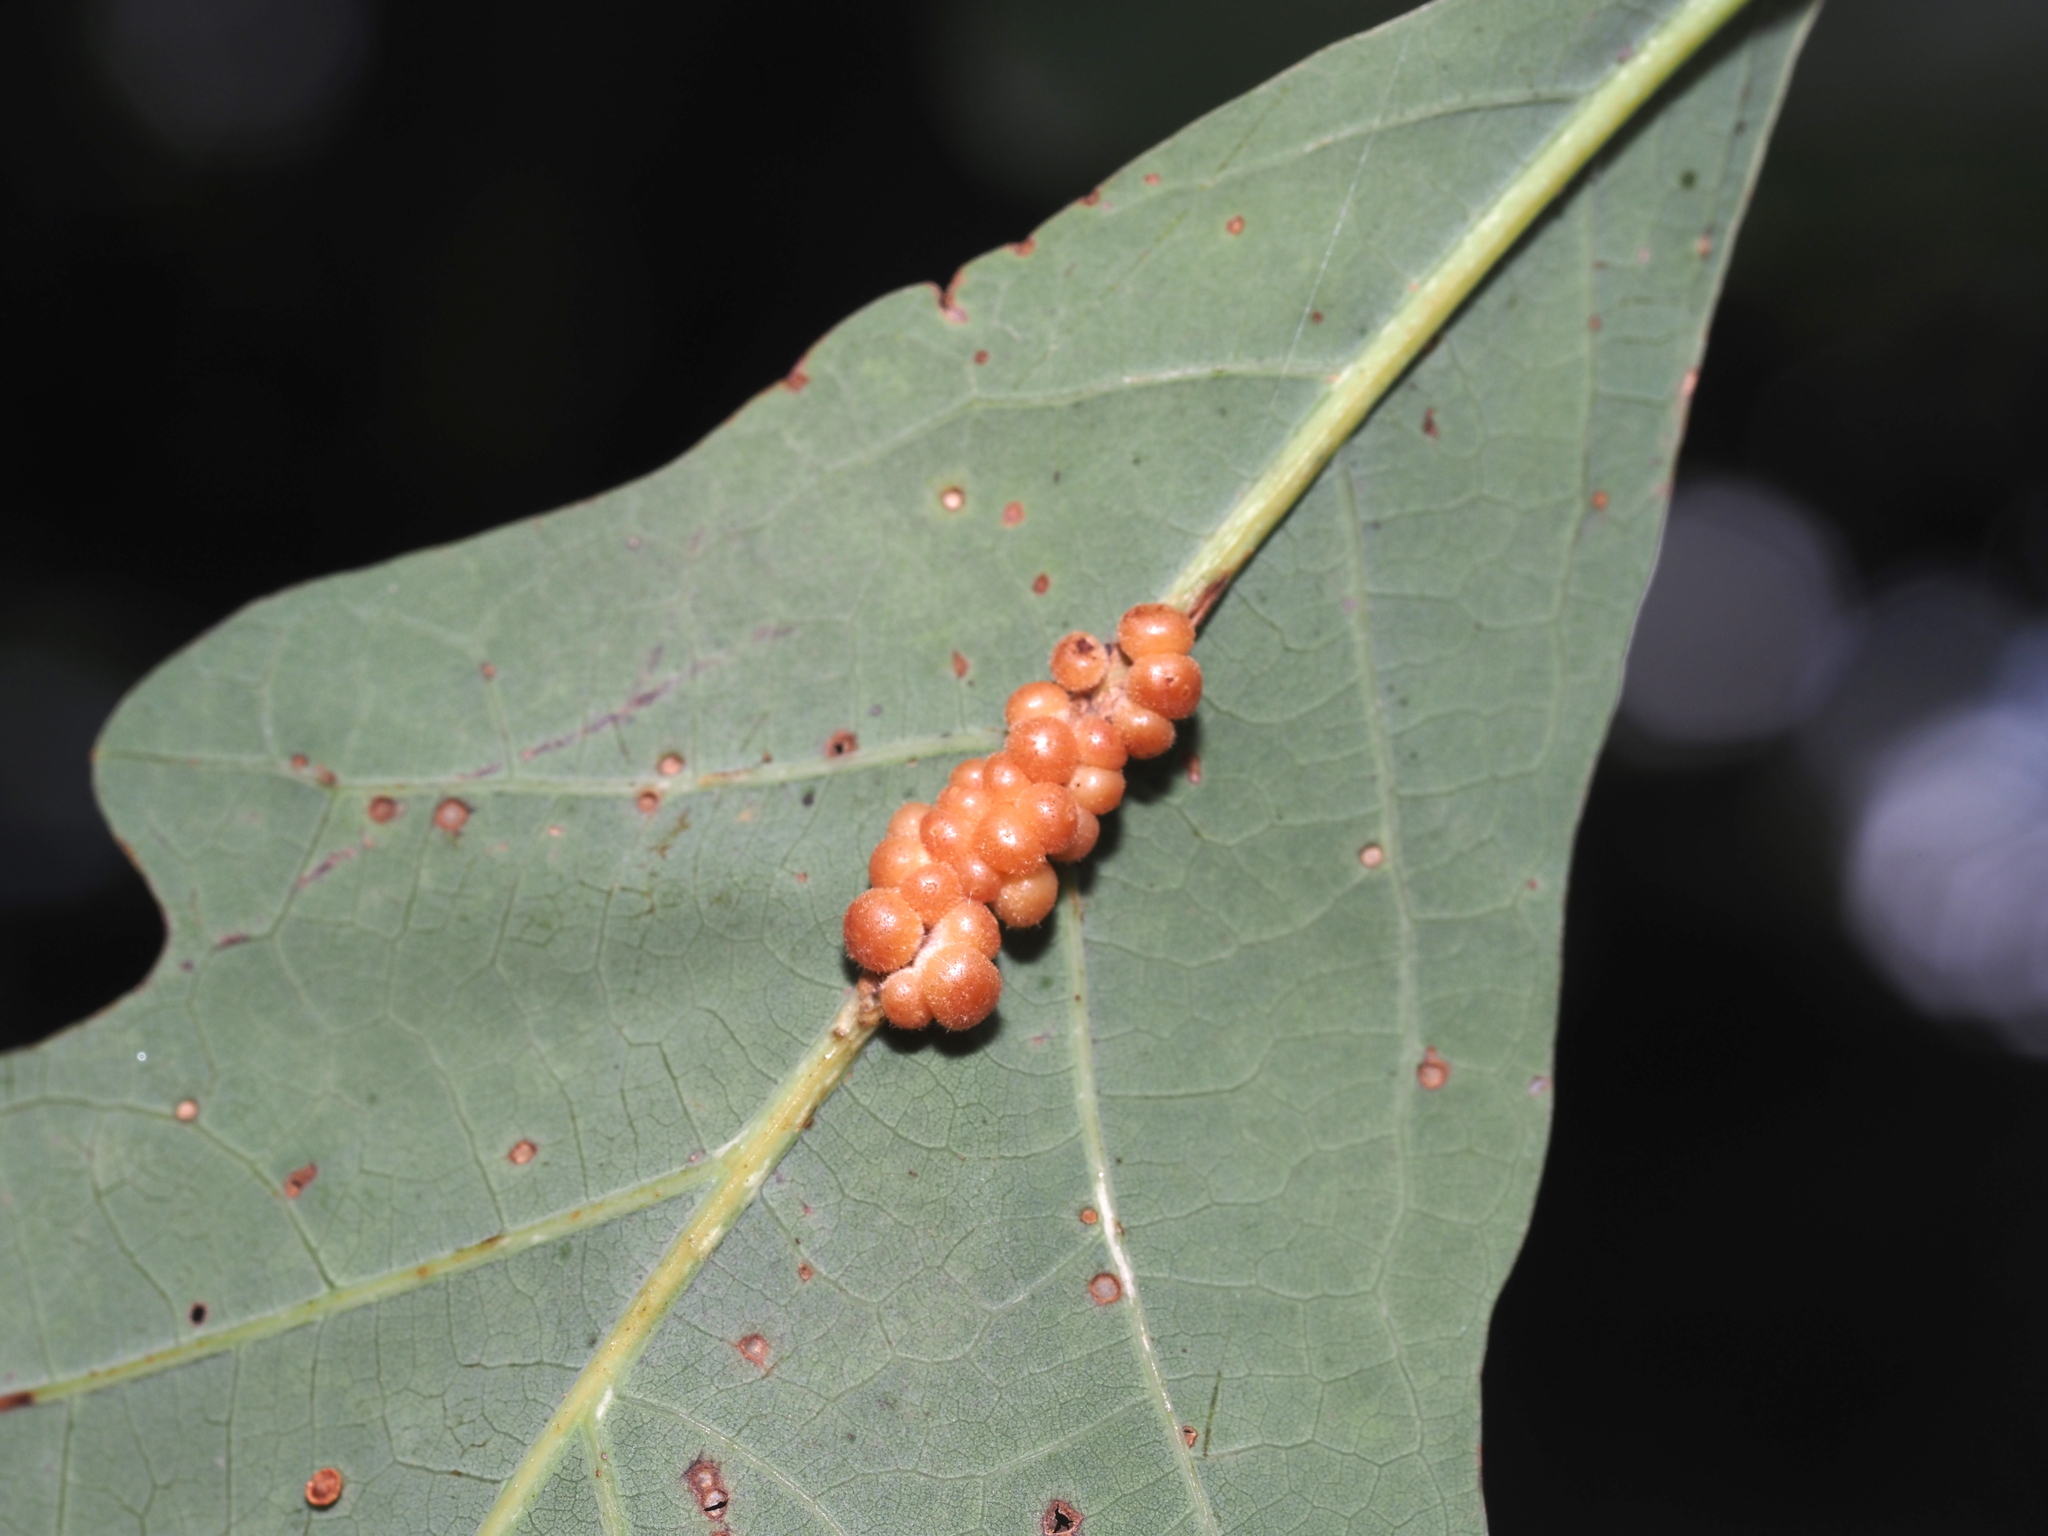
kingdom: Animalia
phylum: Arthropoda
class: Insecta
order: Hymenoptera
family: Cynipidae
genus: Andricus
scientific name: Andricus
